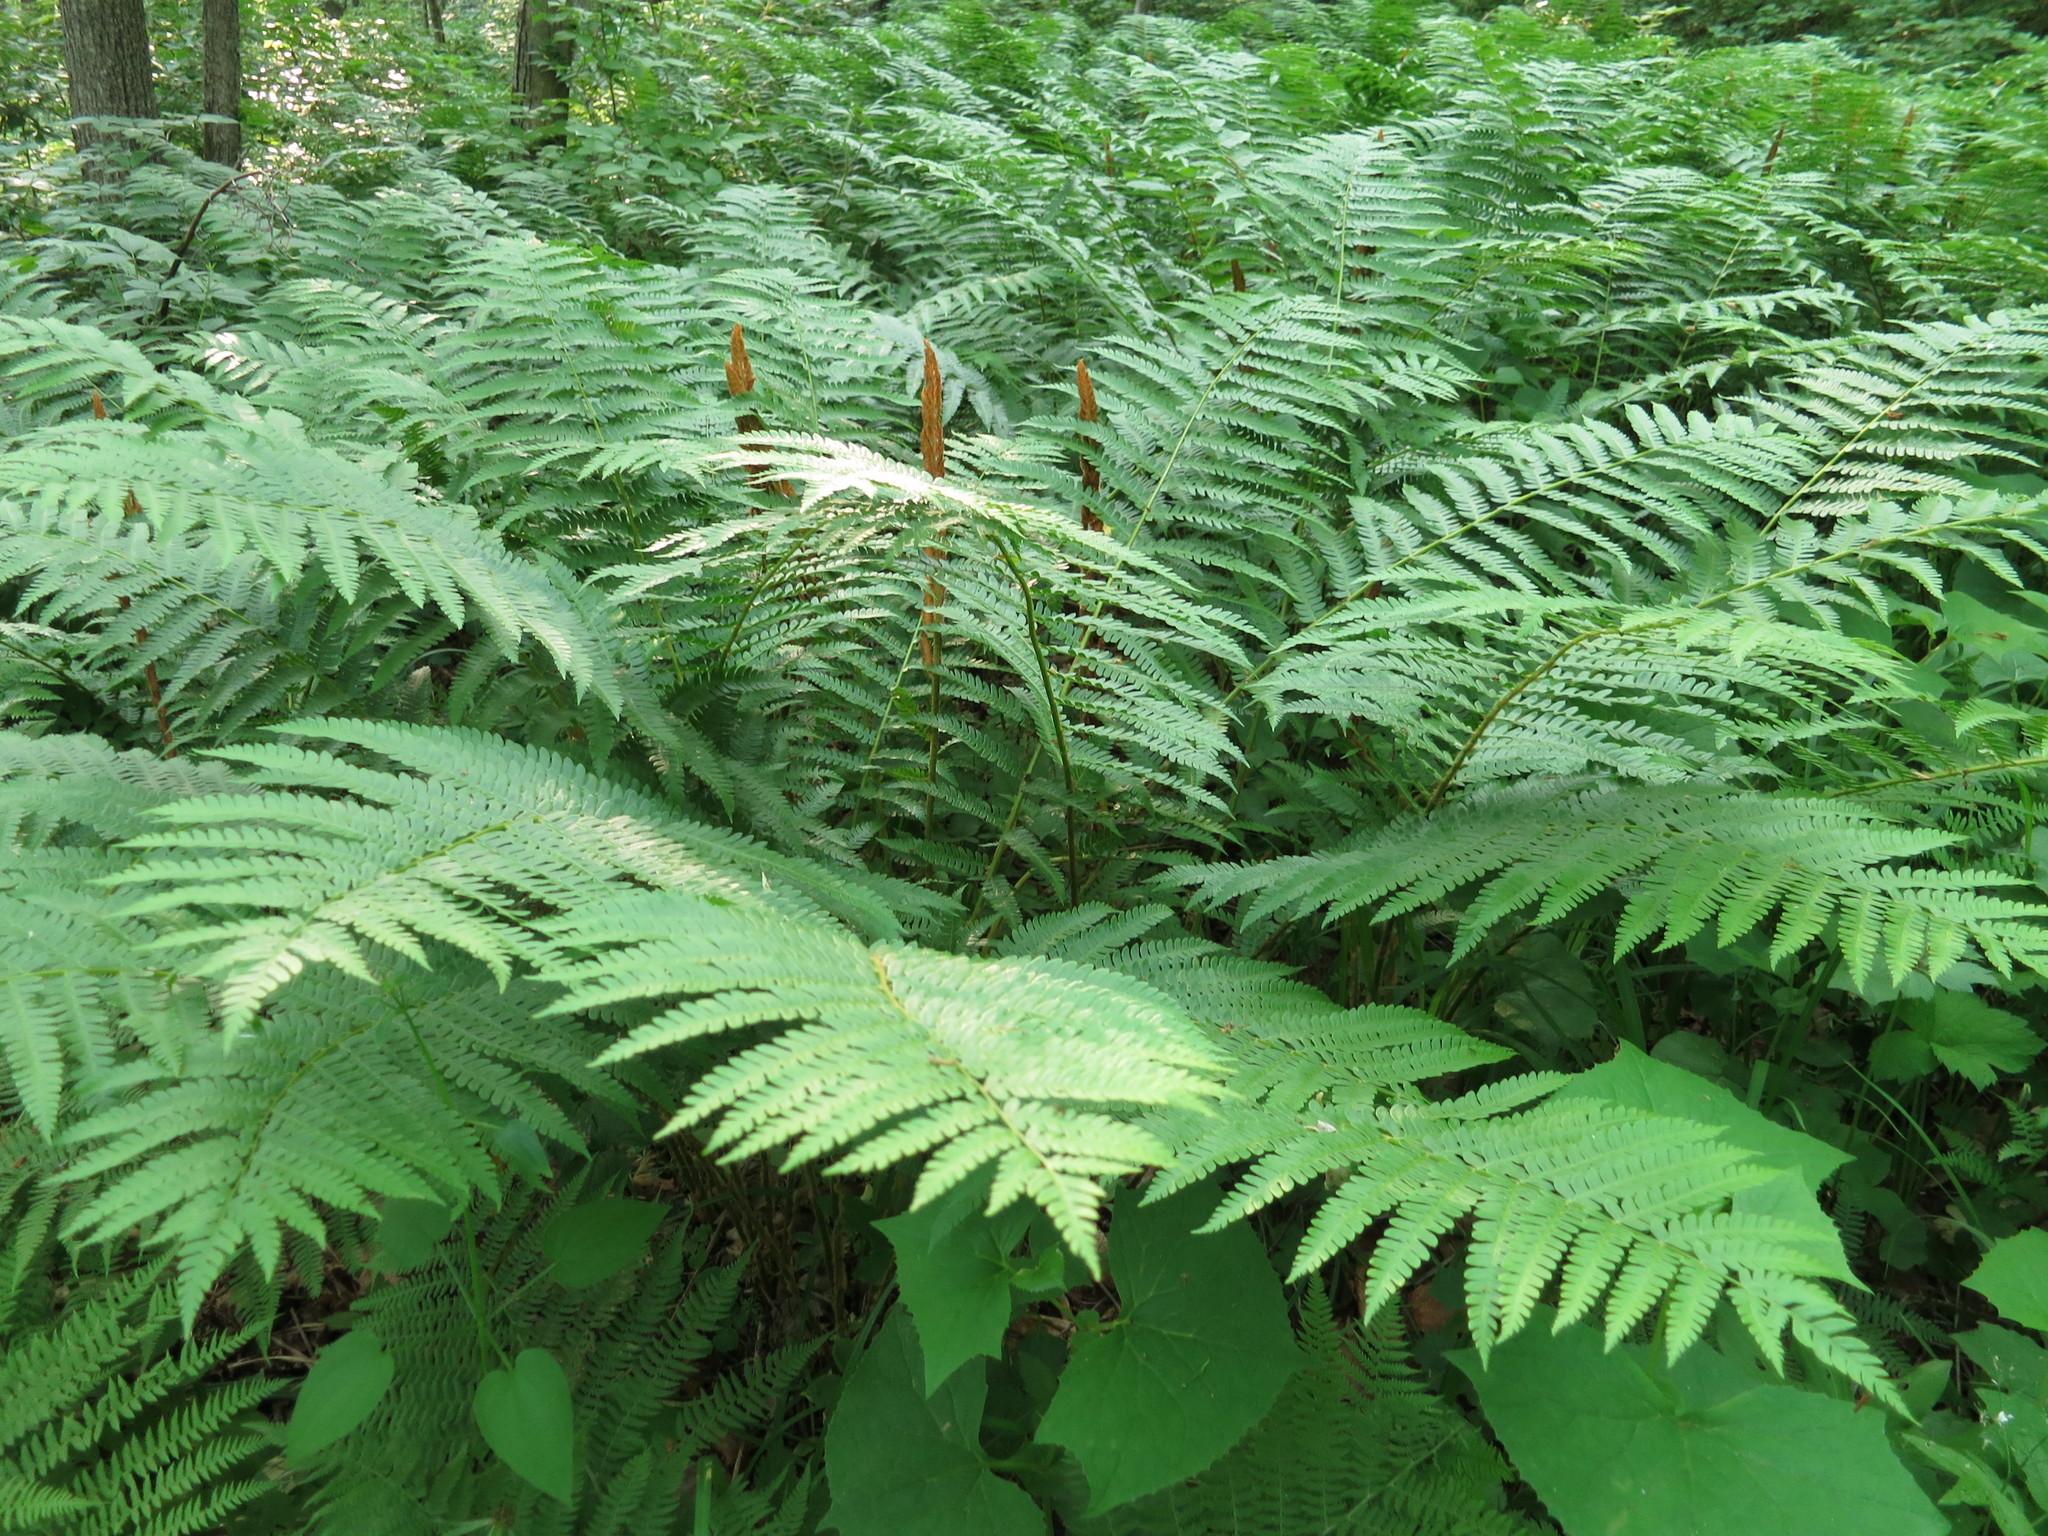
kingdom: Plantae
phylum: Tracheophyta
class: Polypodiopsida
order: Osmundales
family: Osmundaceae
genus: Osmundastrum
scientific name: Osmundastrum cinnamomeum
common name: Cinnamon fern
